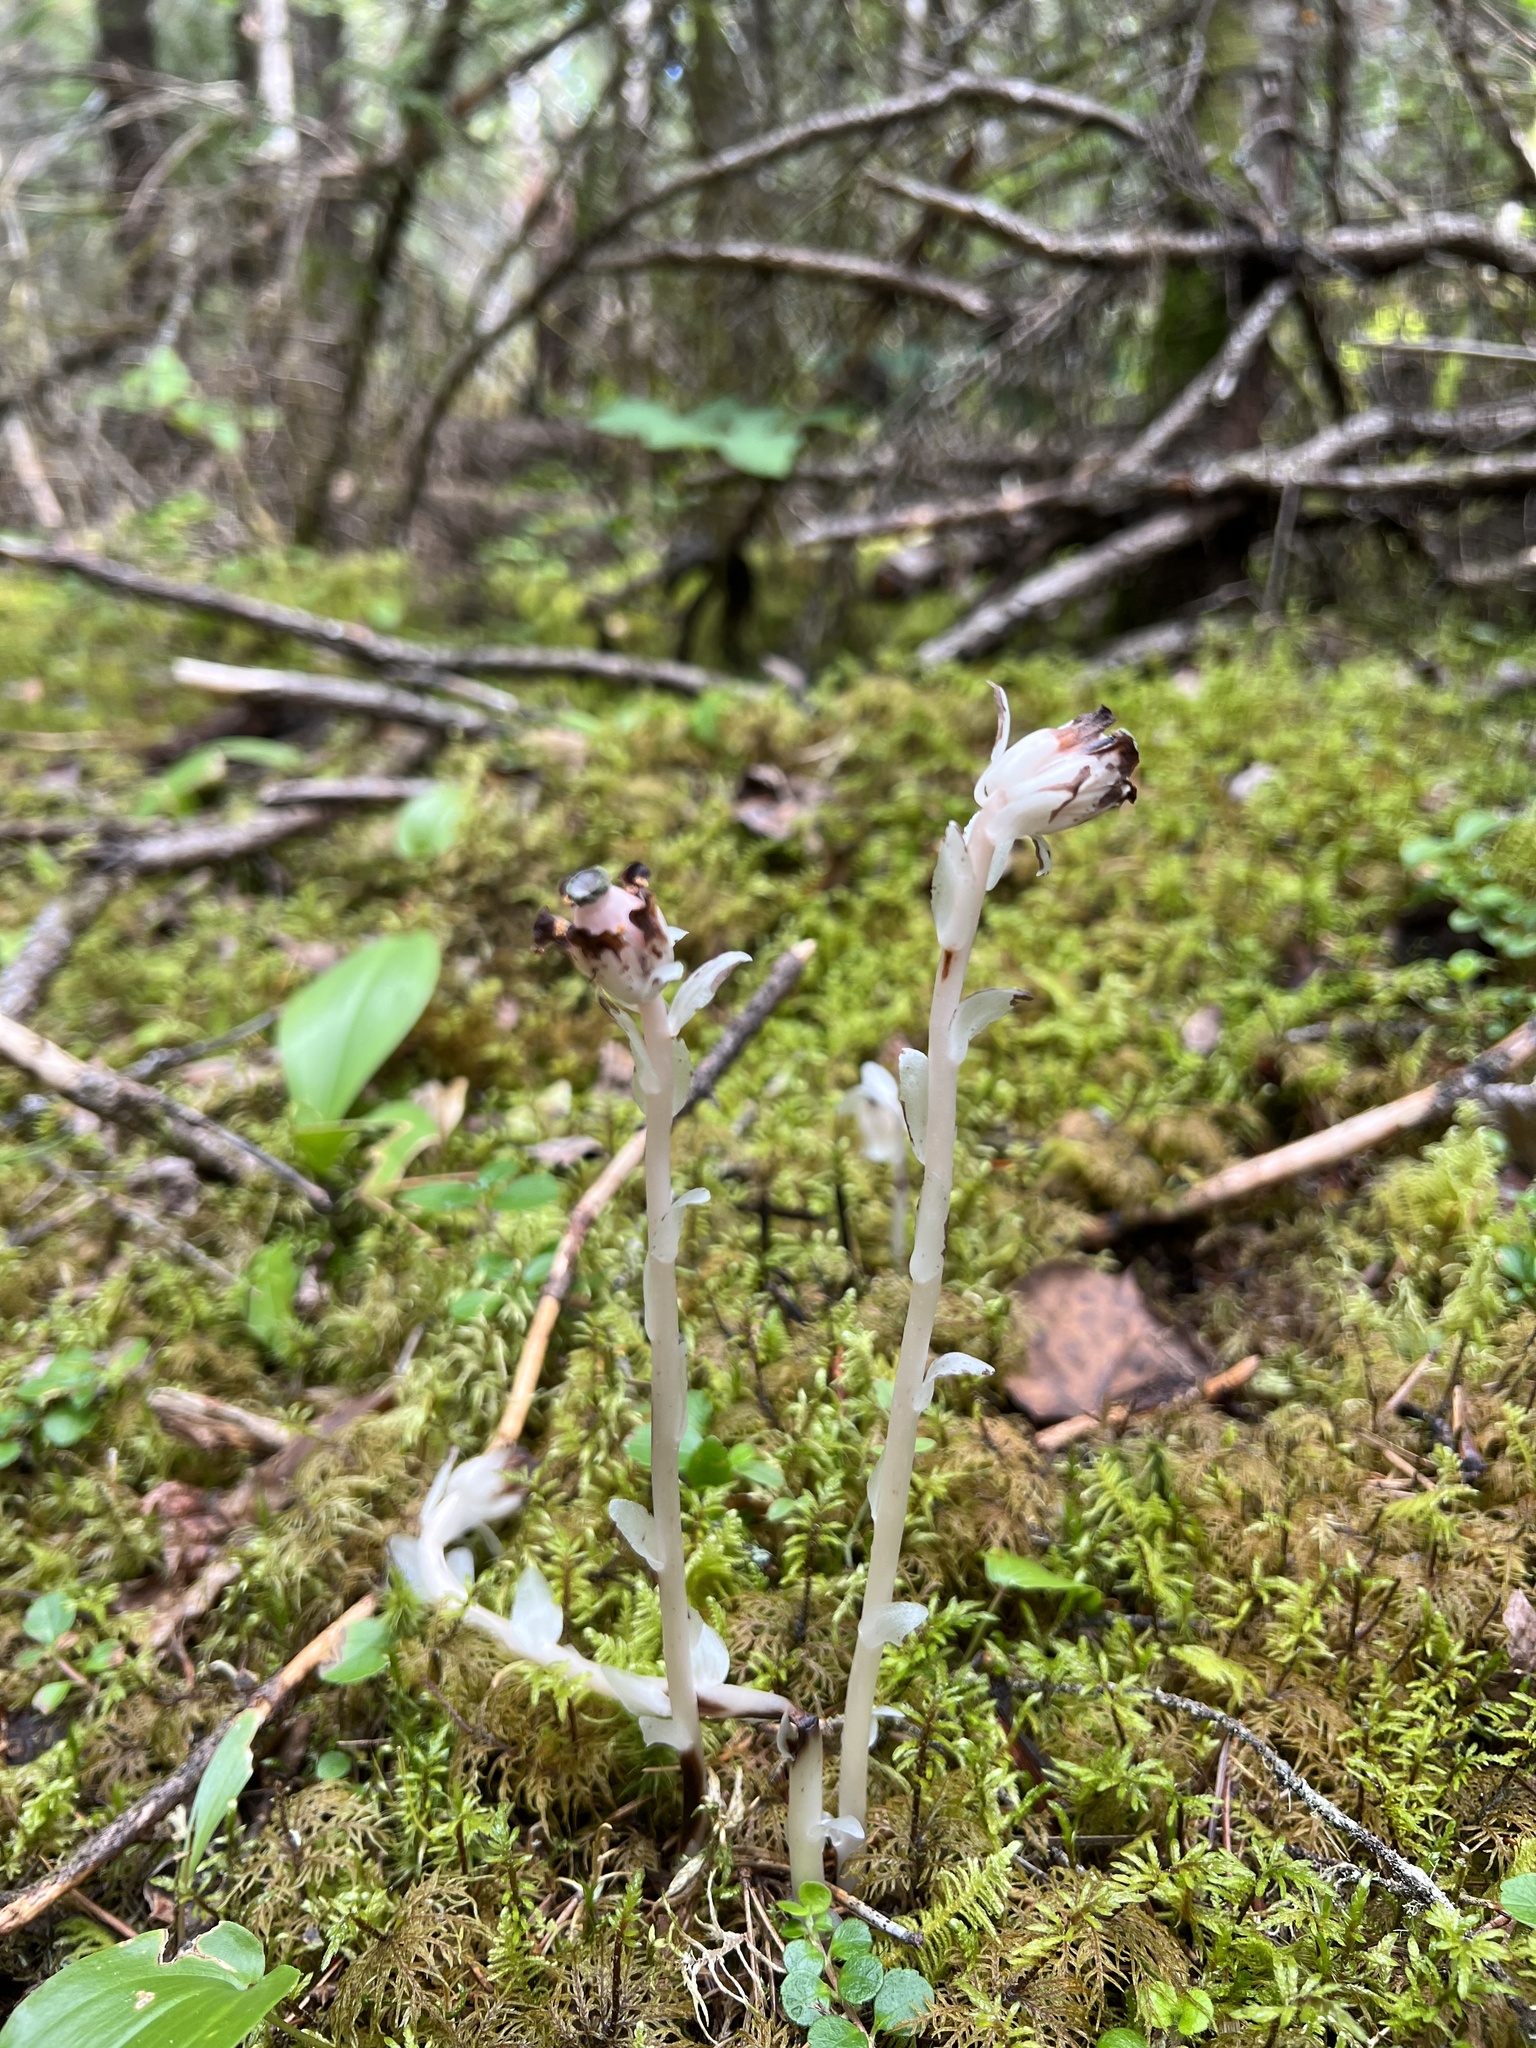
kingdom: Plantae
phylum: Tracheophyta
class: Magnoliopsida
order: Ericales
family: Ericaceae
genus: Monotropa
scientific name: Monotropa uniflora
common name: Convulsion root
